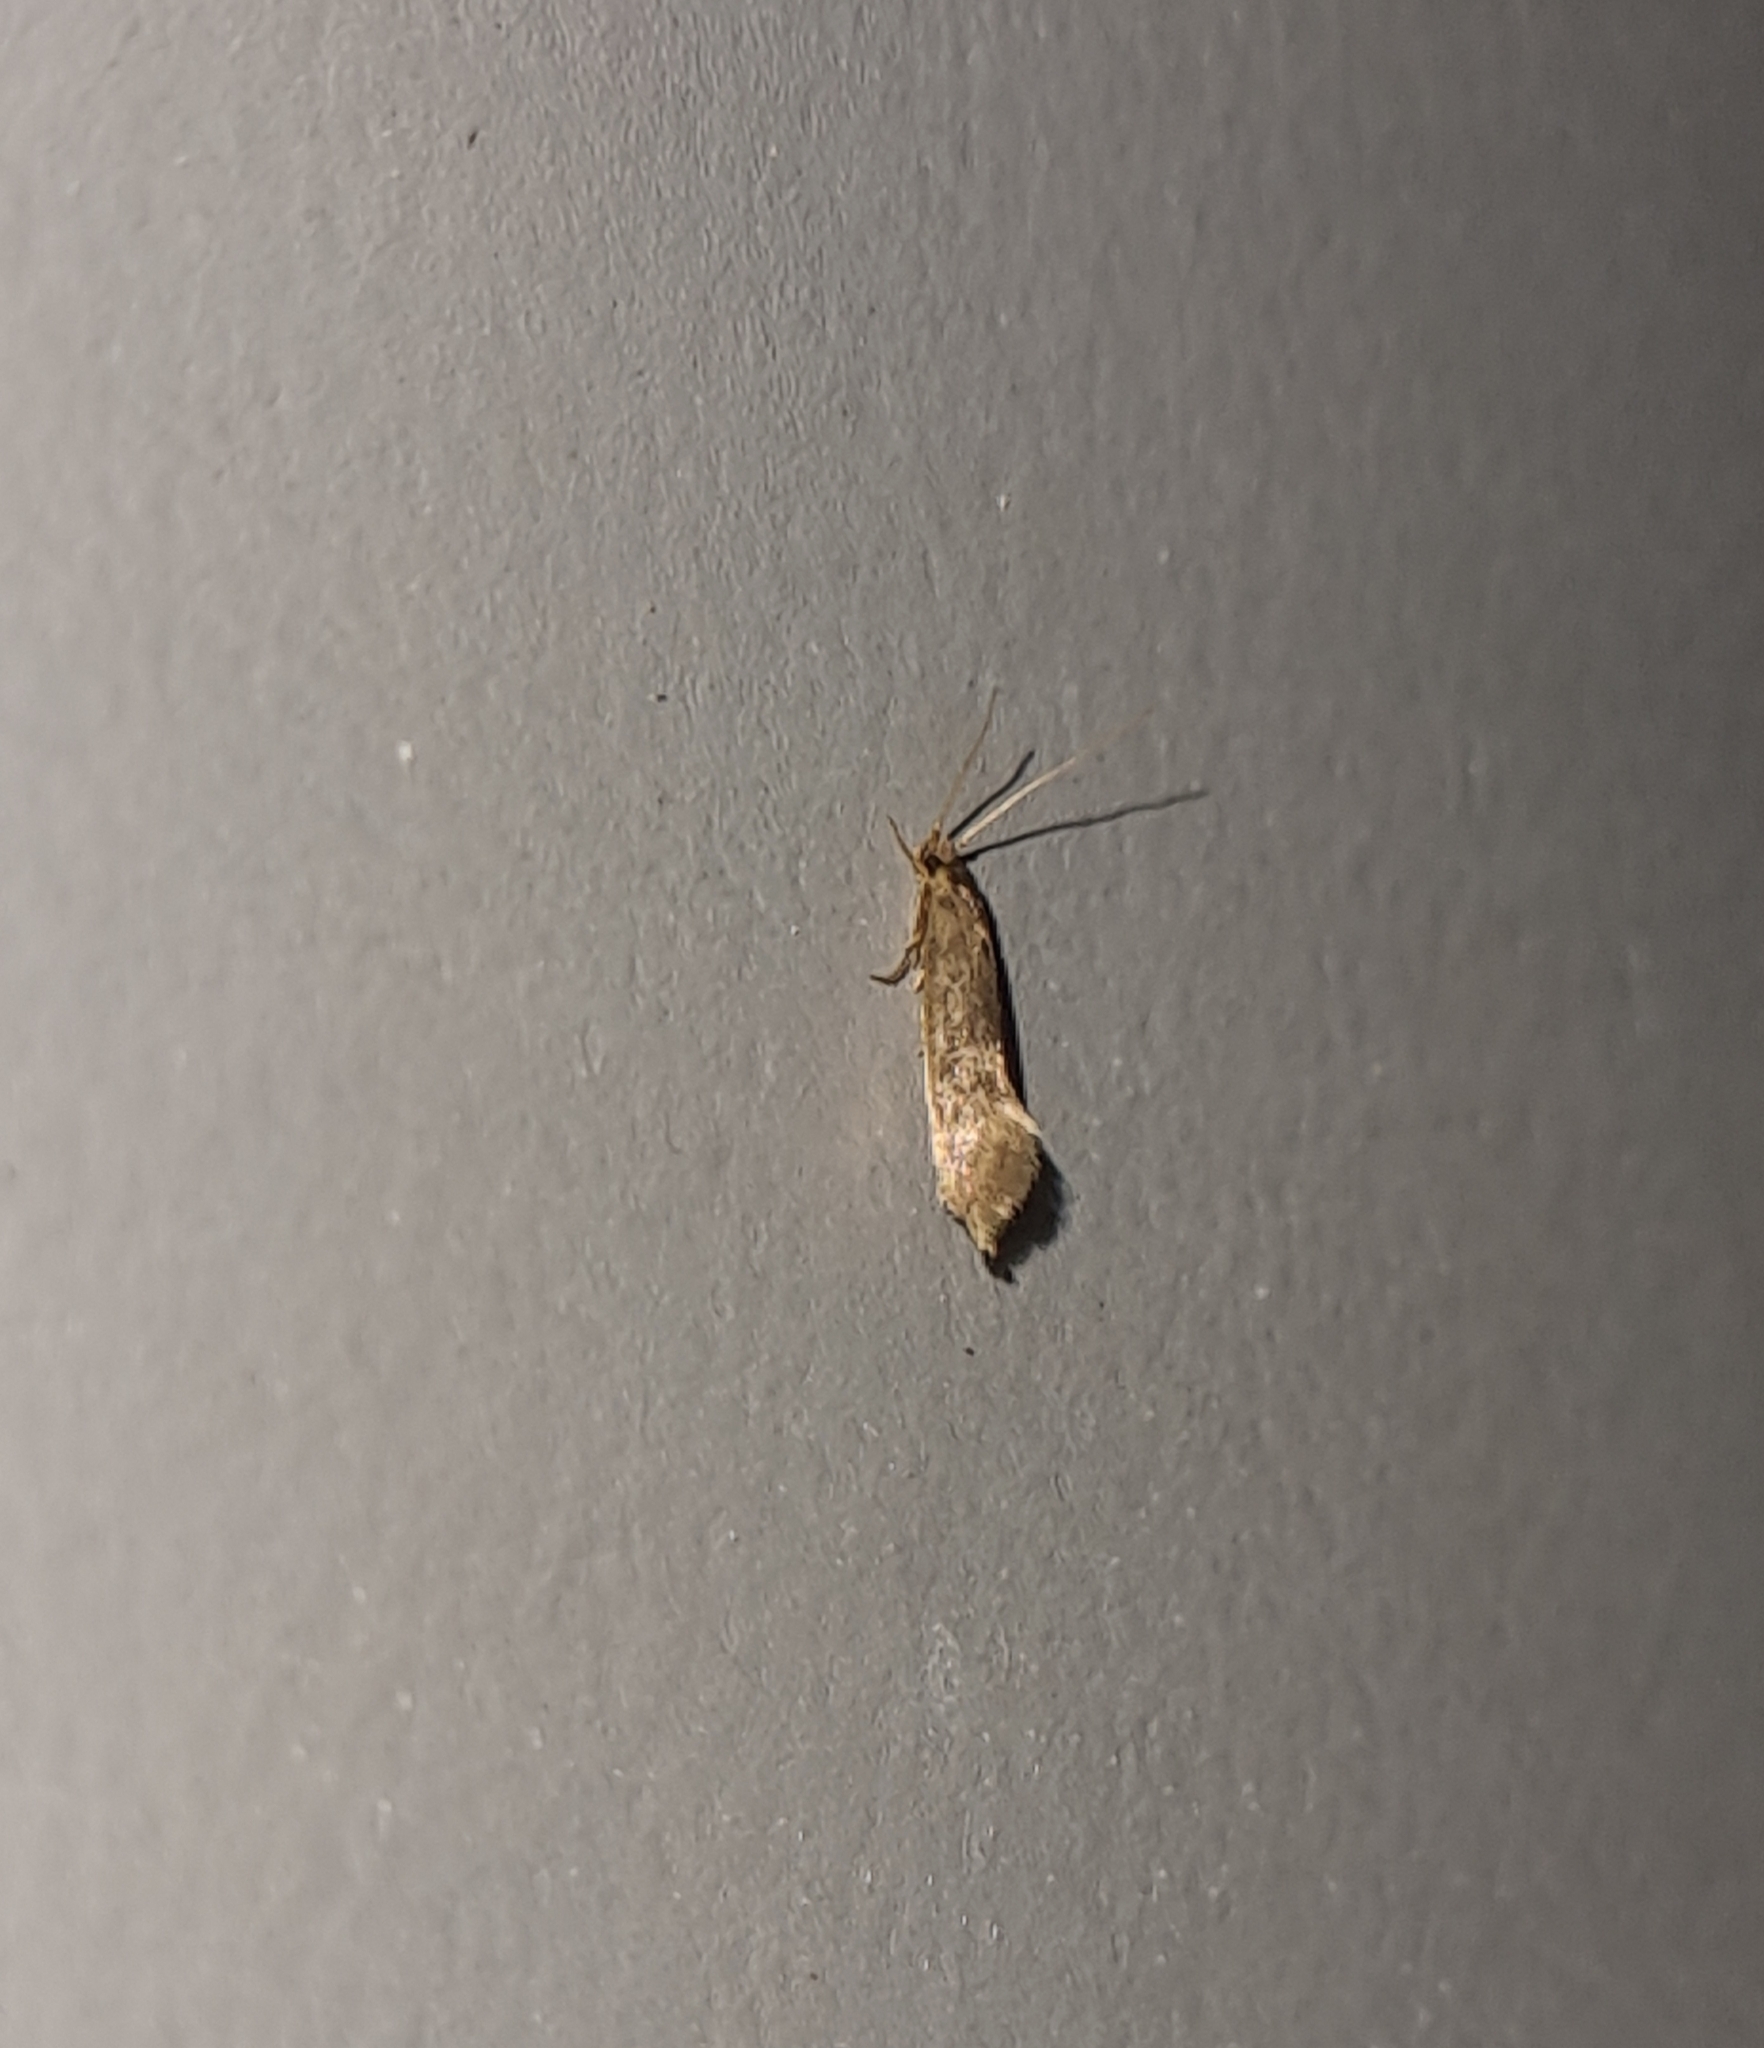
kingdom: Animalia
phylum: Arthropoda
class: Insecta
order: Lepidoptera
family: Tineidae
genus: Opogona
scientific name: Opogona omoscopa
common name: Moth
